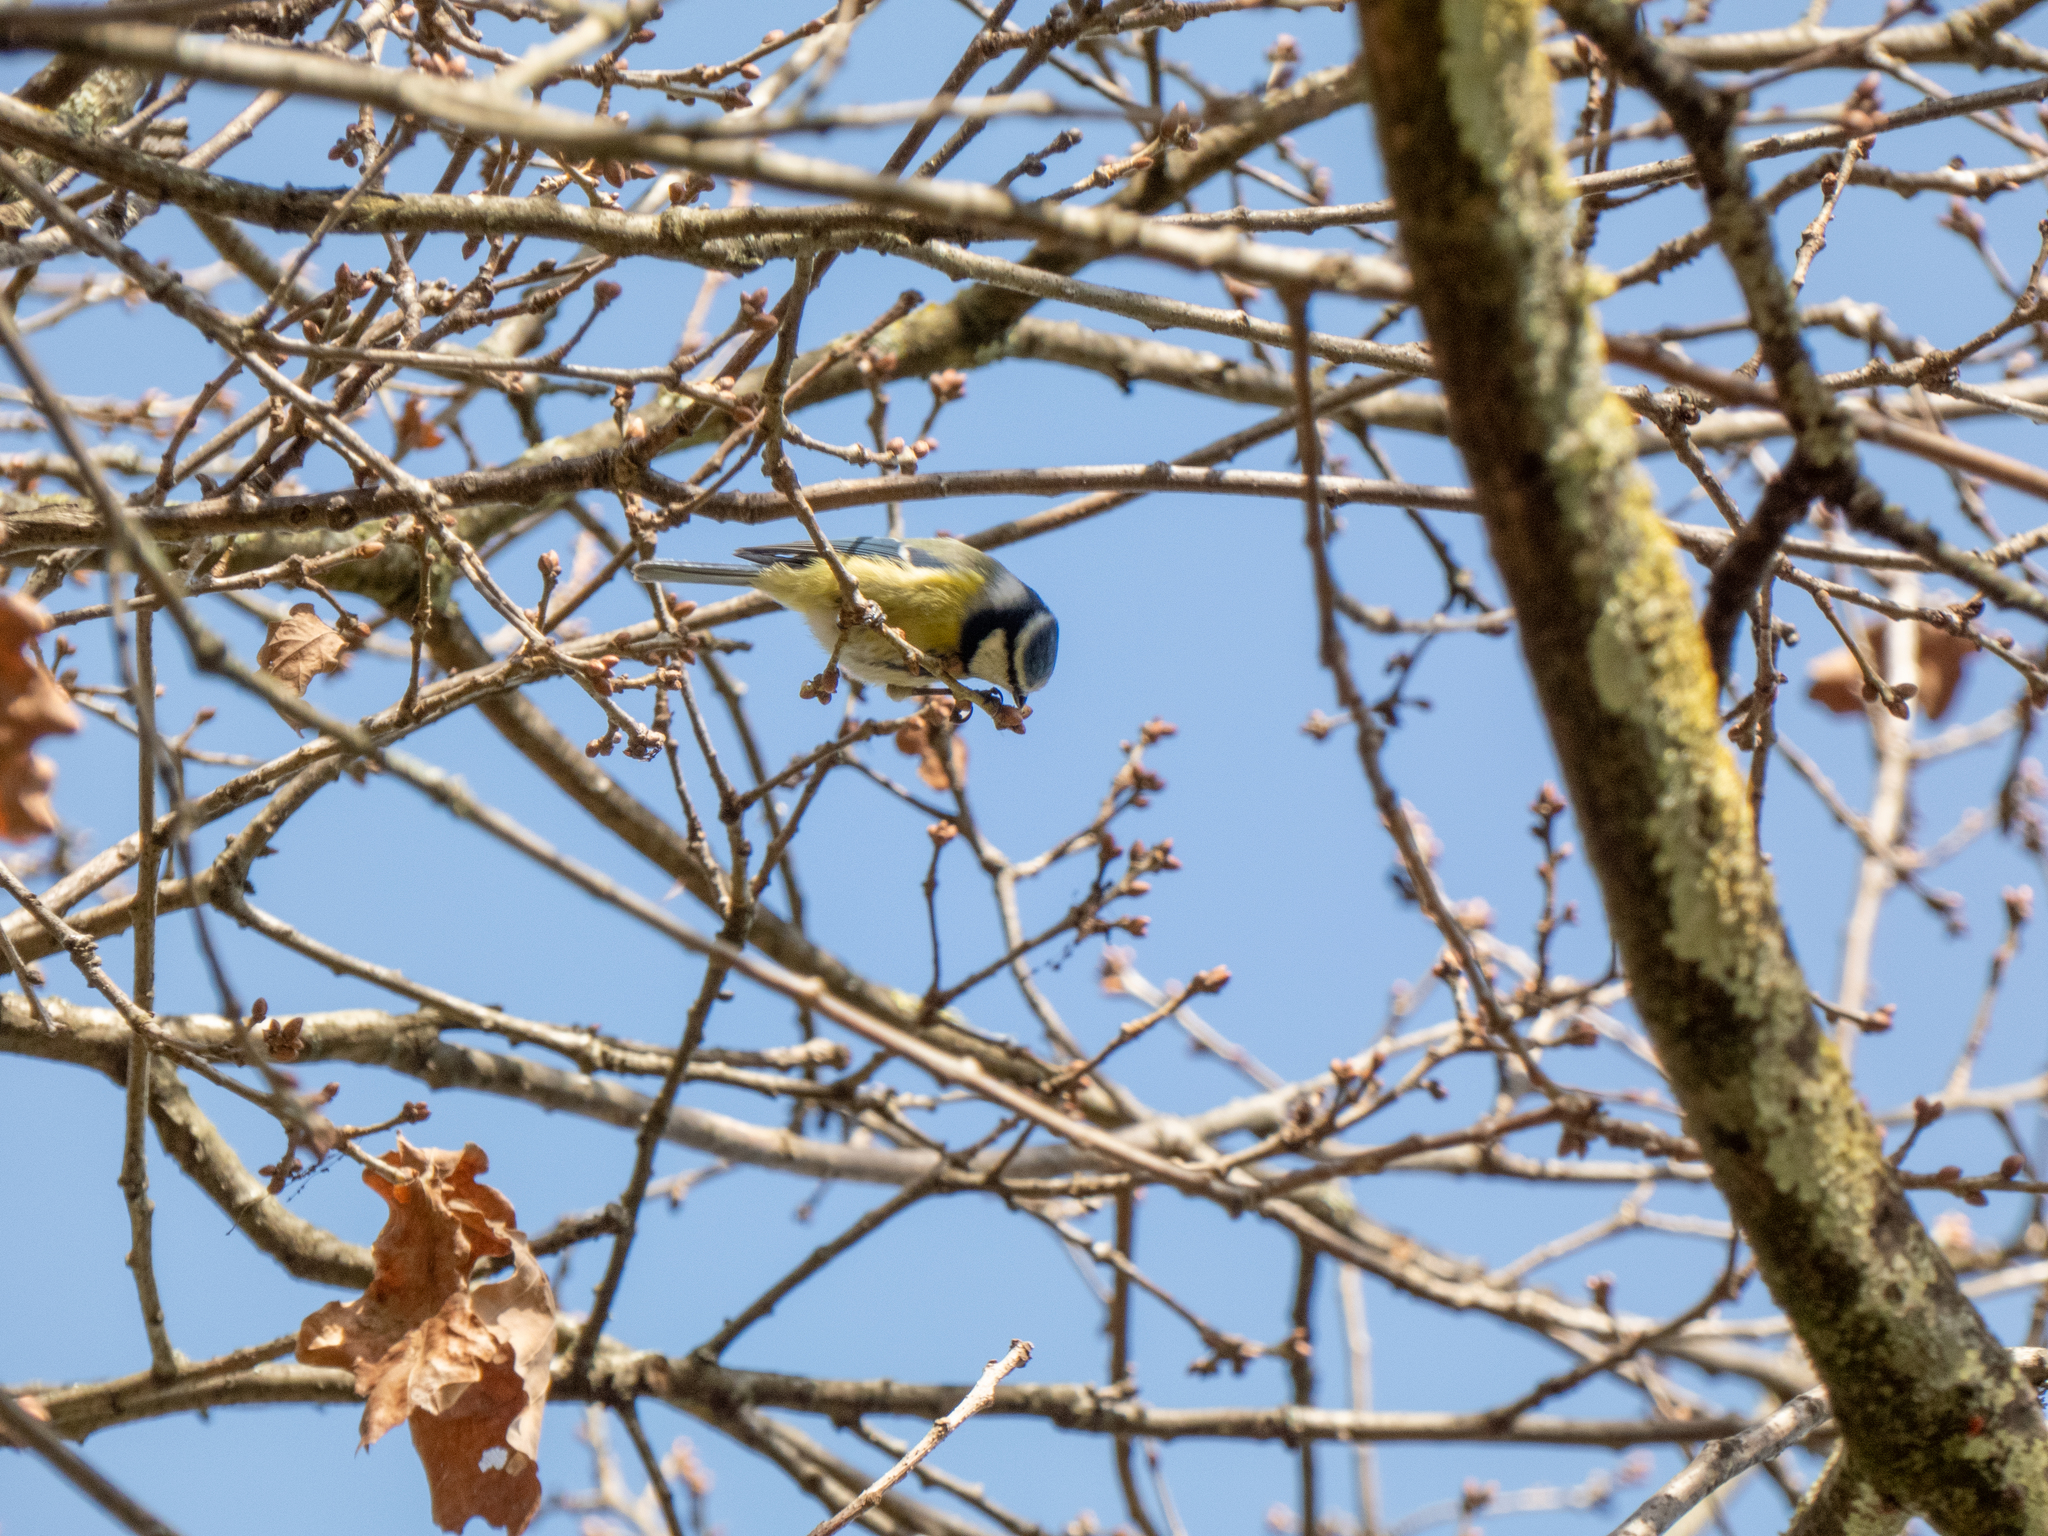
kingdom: Animalia
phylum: Chordata
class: Aves
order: Passeriformes
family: Paridae
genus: Cyanistes
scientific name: Cyanistes caeruleus
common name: Eurasian blue tit
